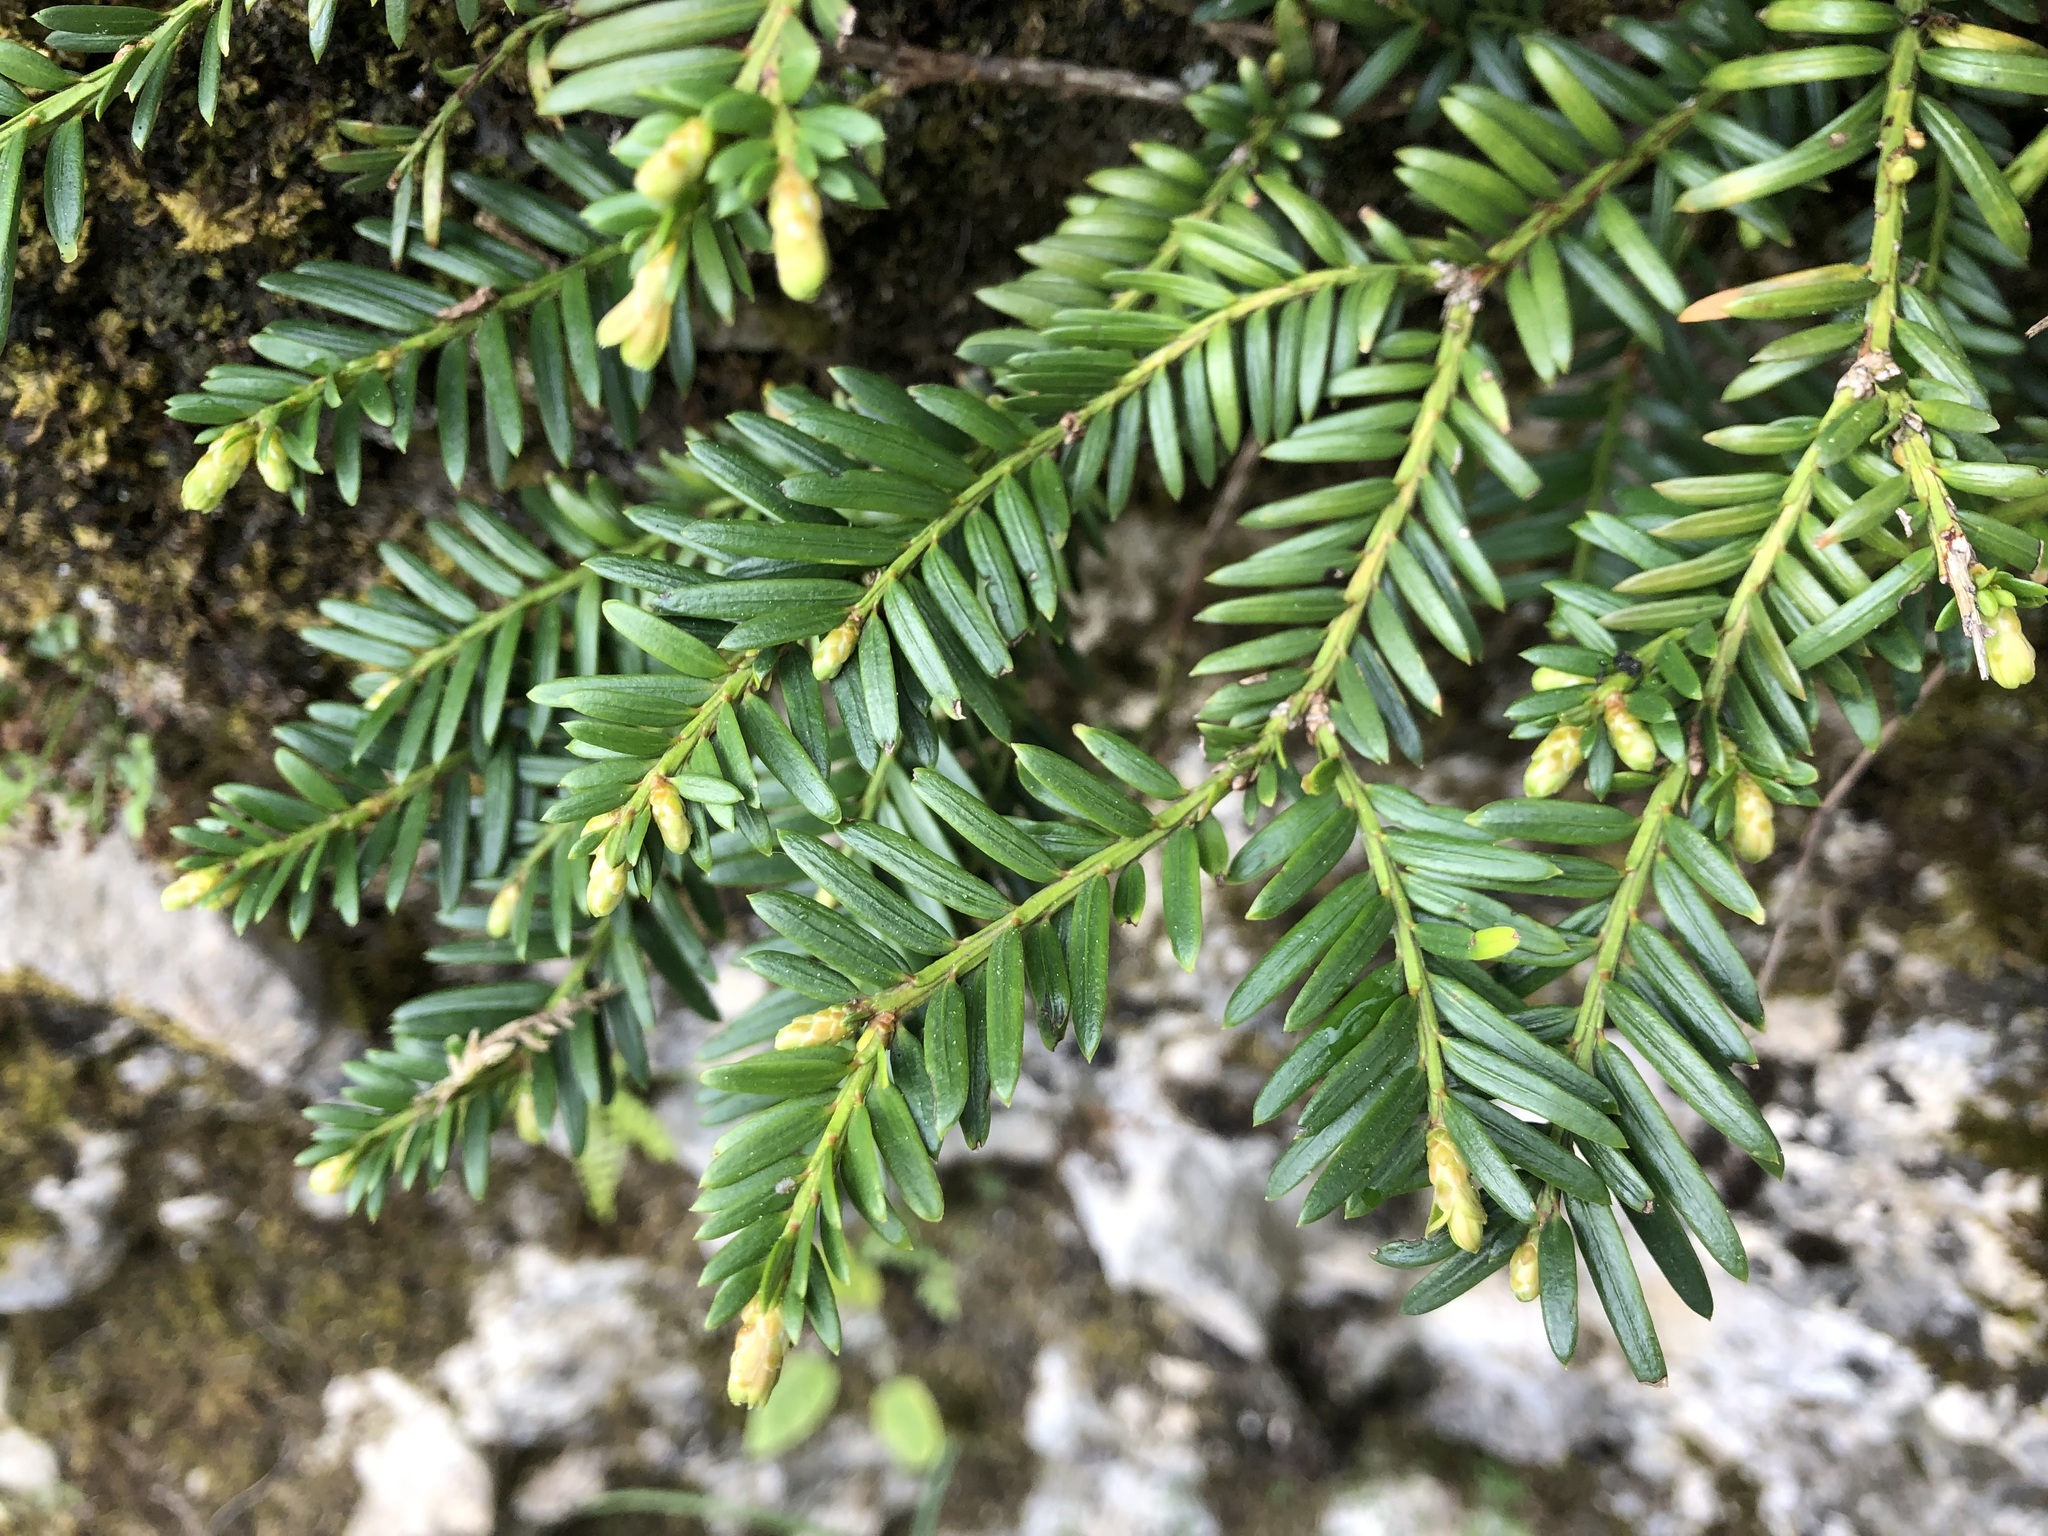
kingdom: Plantae
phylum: Tracheophyta
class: Pinopsida
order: Pinales
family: Taxaceae
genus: Taxus
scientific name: Taxus baccata
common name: Yew
